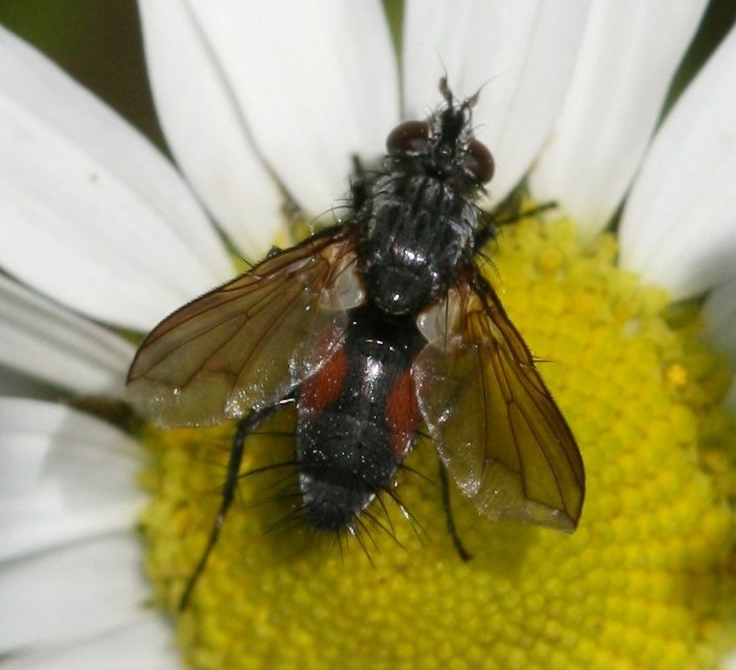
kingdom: Animalia
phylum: Arthropoda
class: Insecta
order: Diptera
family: Tachinidae
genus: Eriothrix
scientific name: Eriothrix rufomaculatus
